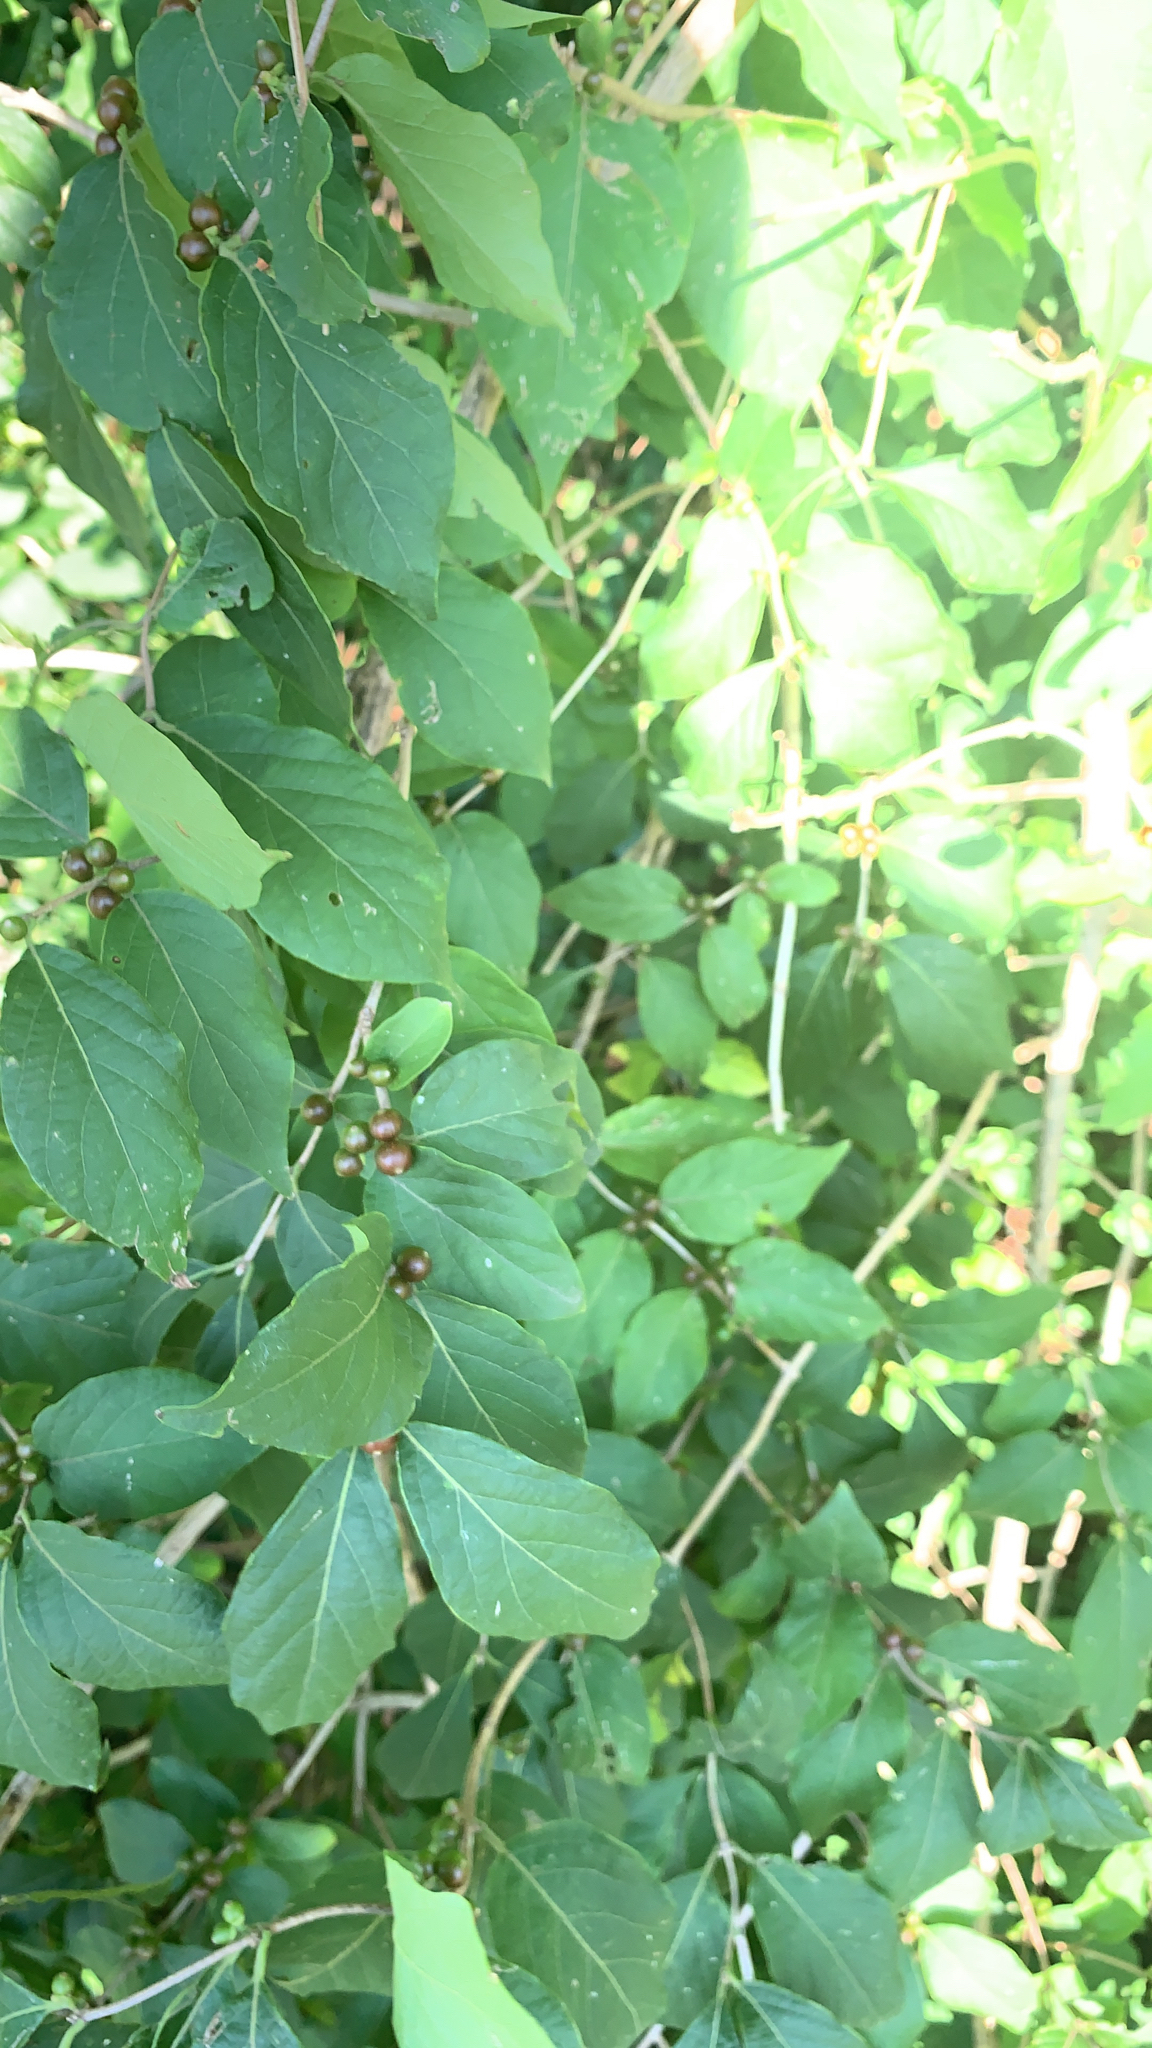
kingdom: Plantae
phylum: Tracheophyta
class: Magnoliopsida
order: Dipsacales
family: Caprifoliaceae
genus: Lonicera
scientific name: Lonicera maackii
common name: Amur honeysuckle
